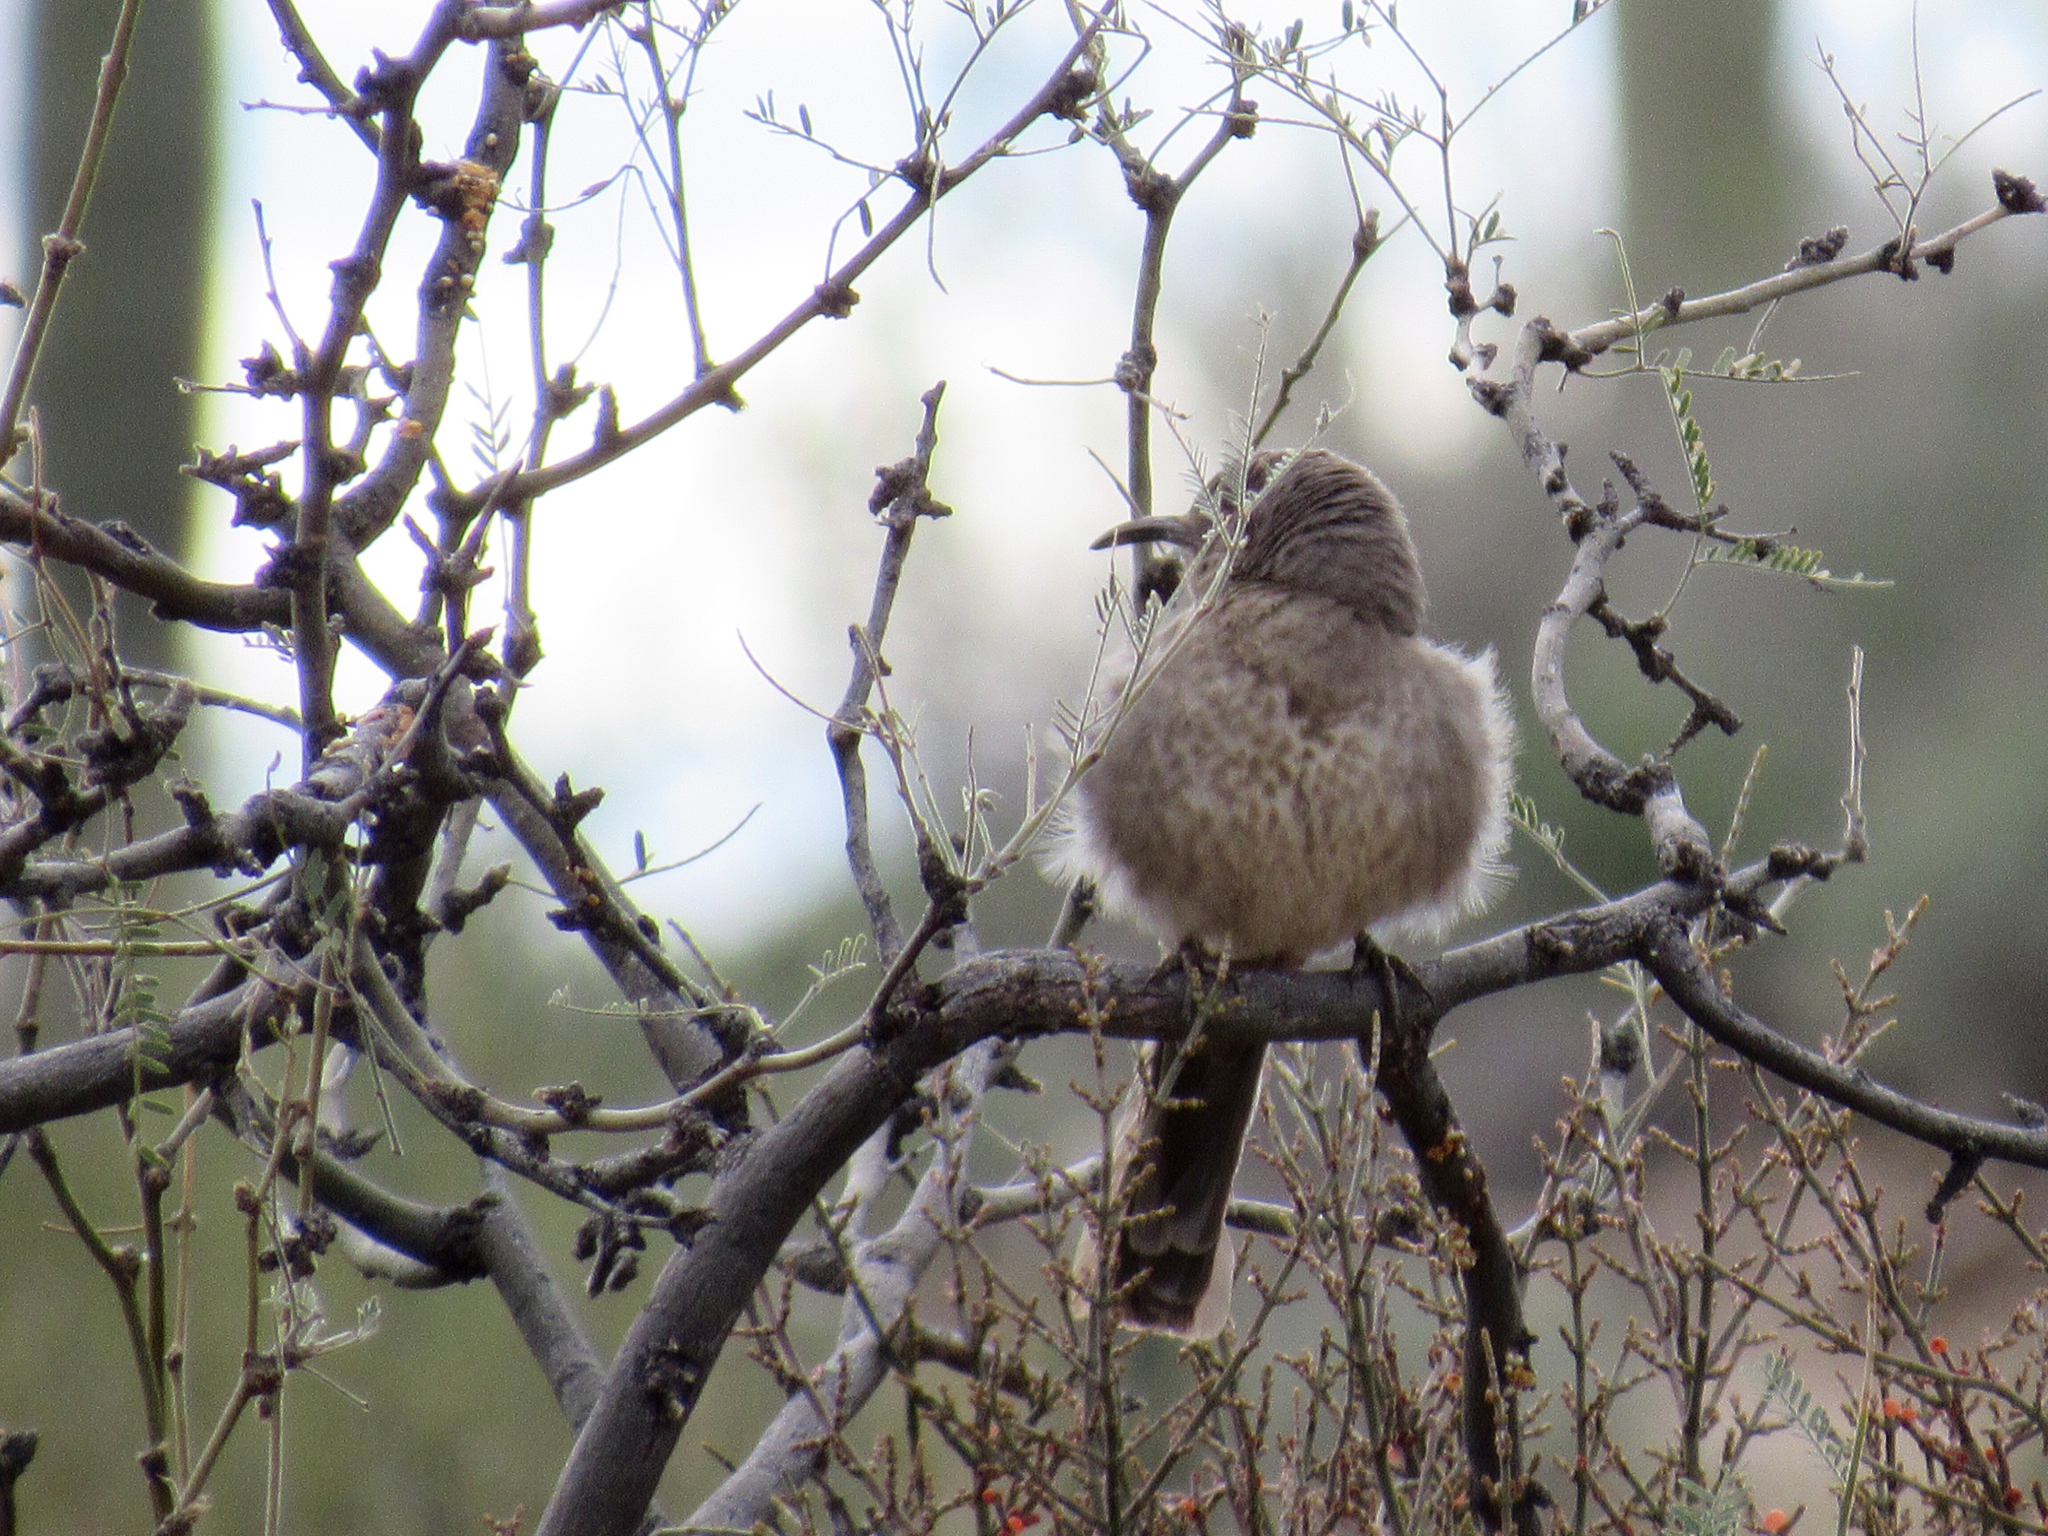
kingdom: Animalia
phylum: Chordata
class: Aves
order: Passeriformes
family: Mimidae
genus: Toxostoma
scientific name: Toxostoma curvirostre
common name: Curve-billed thrasher
